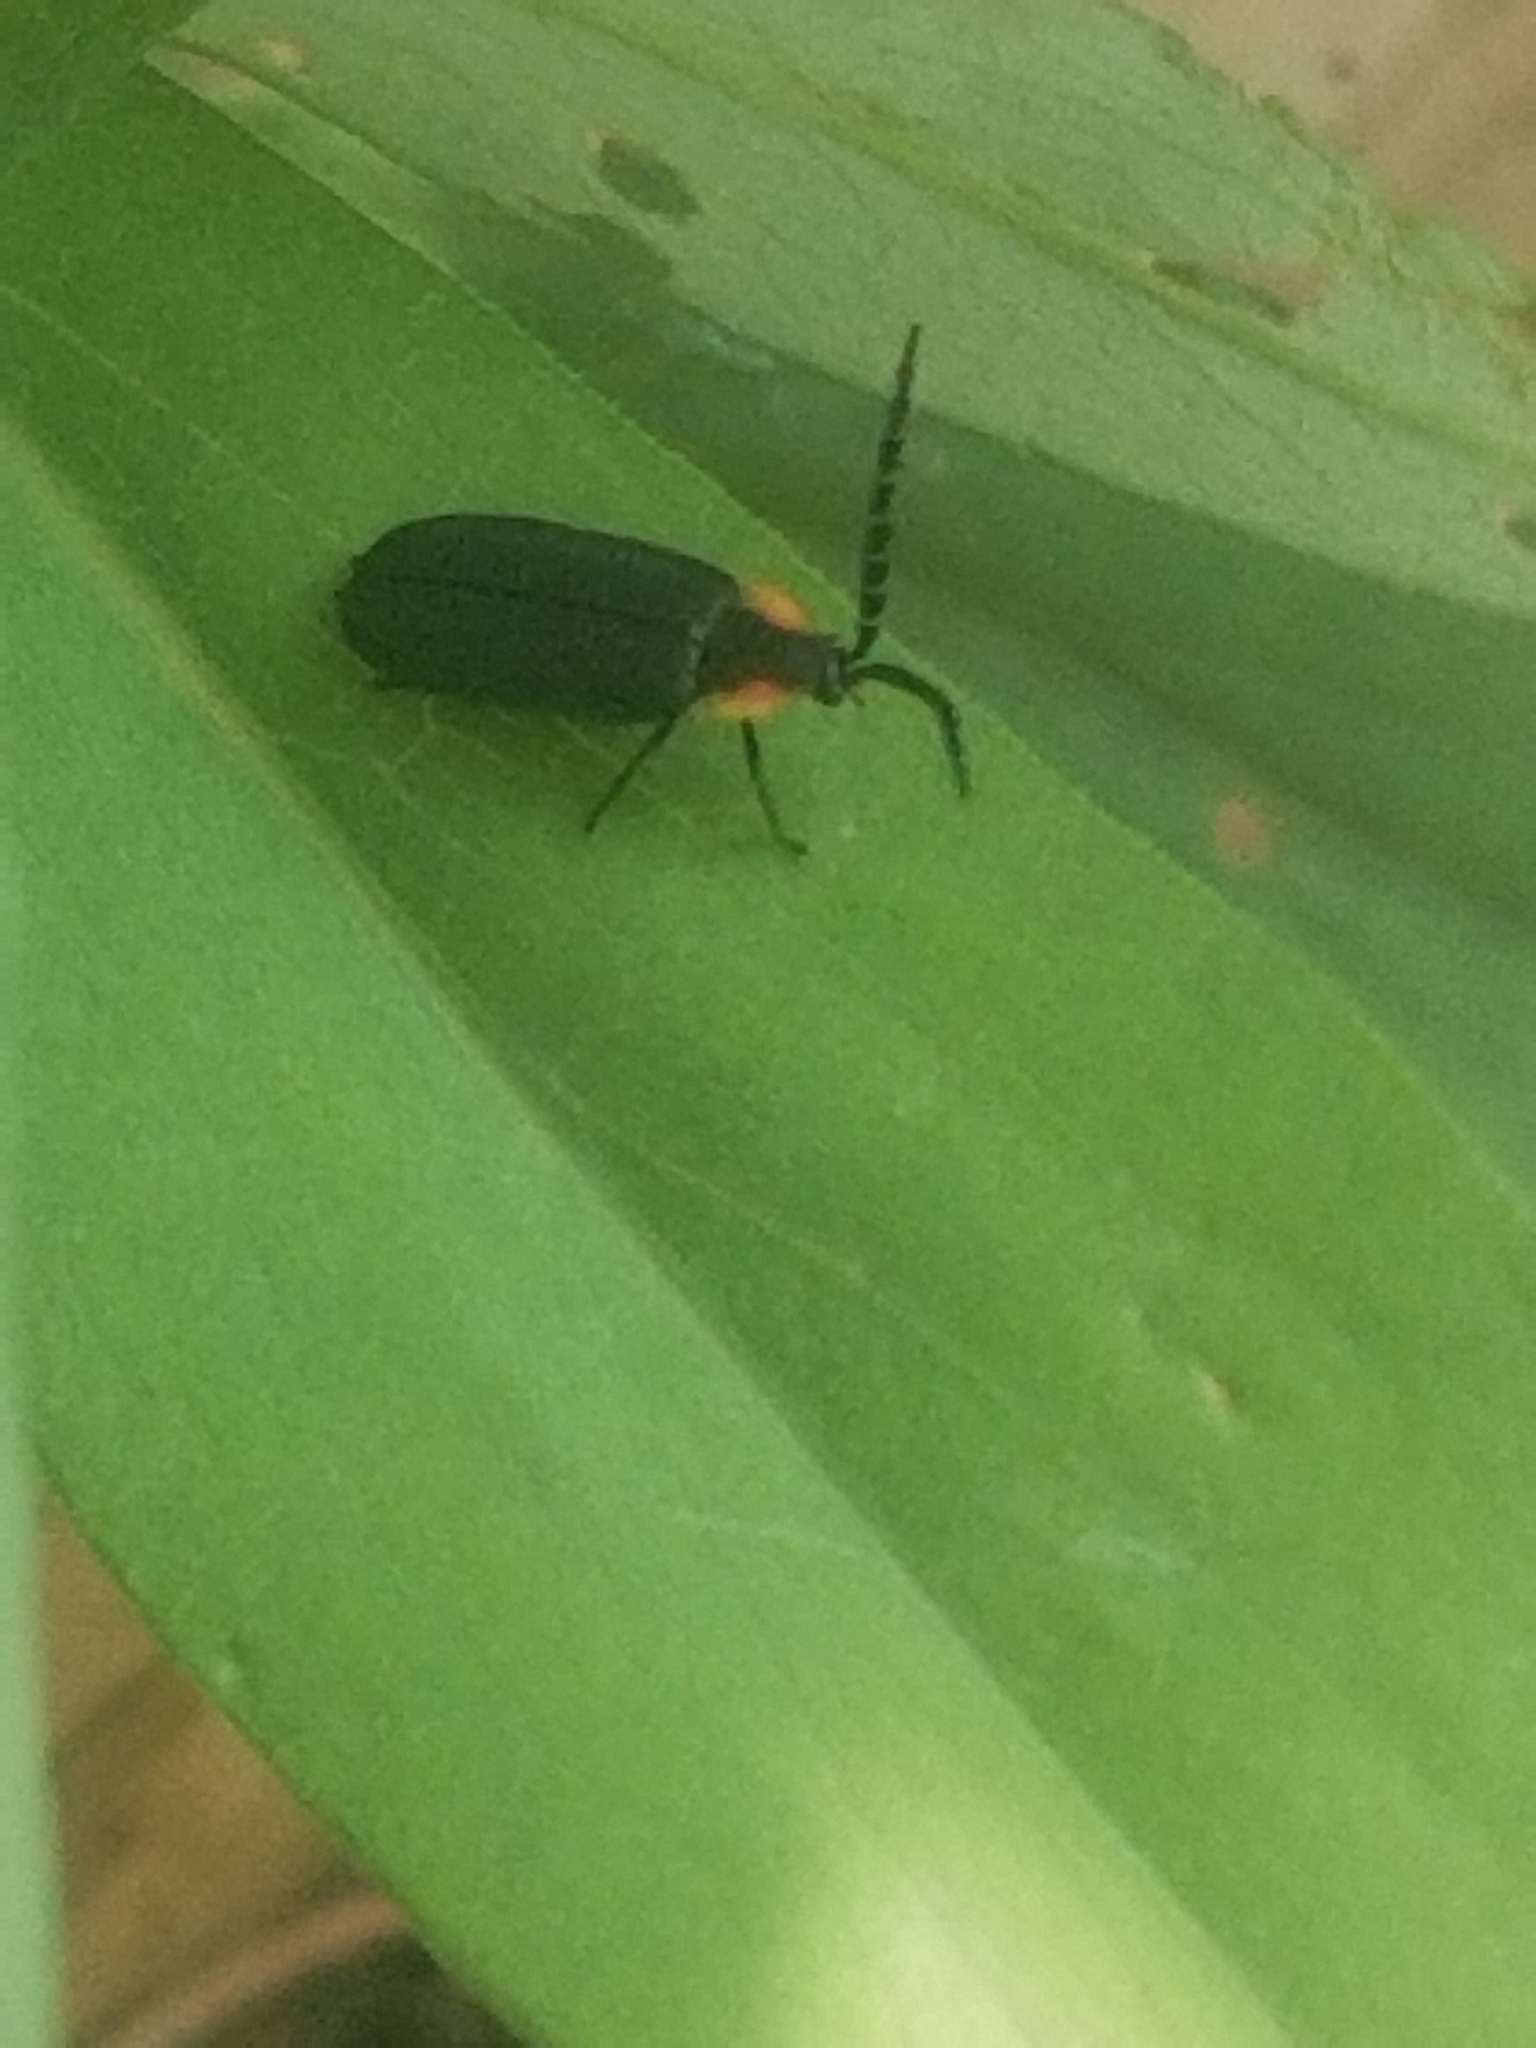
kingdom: Animalia
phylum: Arthropoda
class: Insecta
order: Coleoptera
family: Lampyridae
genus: Lucidota
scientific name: Lucidota atra
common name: Black firefly
